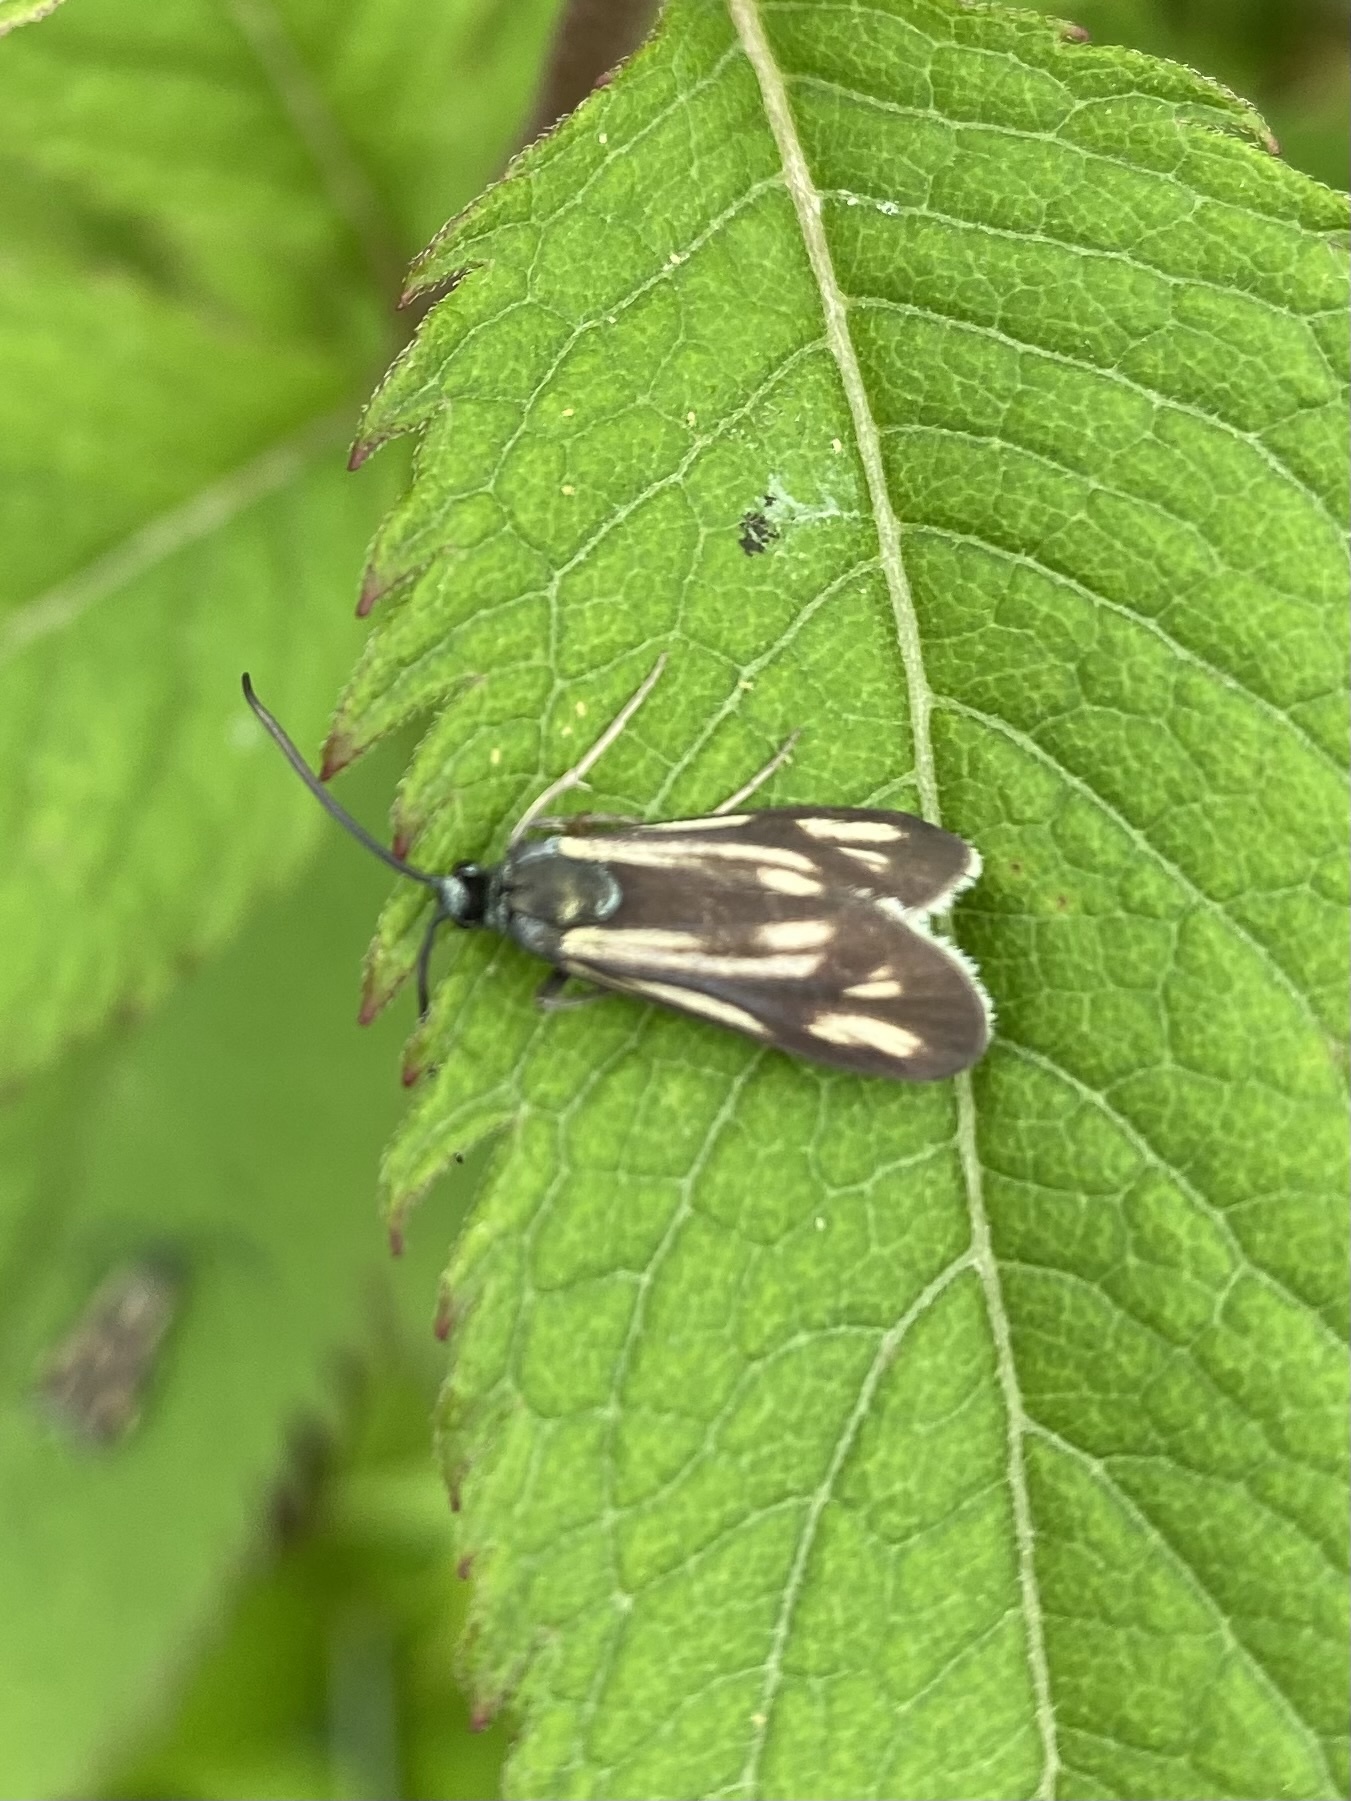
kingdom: Animalia
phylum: Arthropoda
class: Insecta
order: Lepidoptera
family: Zygaenidae
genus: Artona
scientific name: Artona
